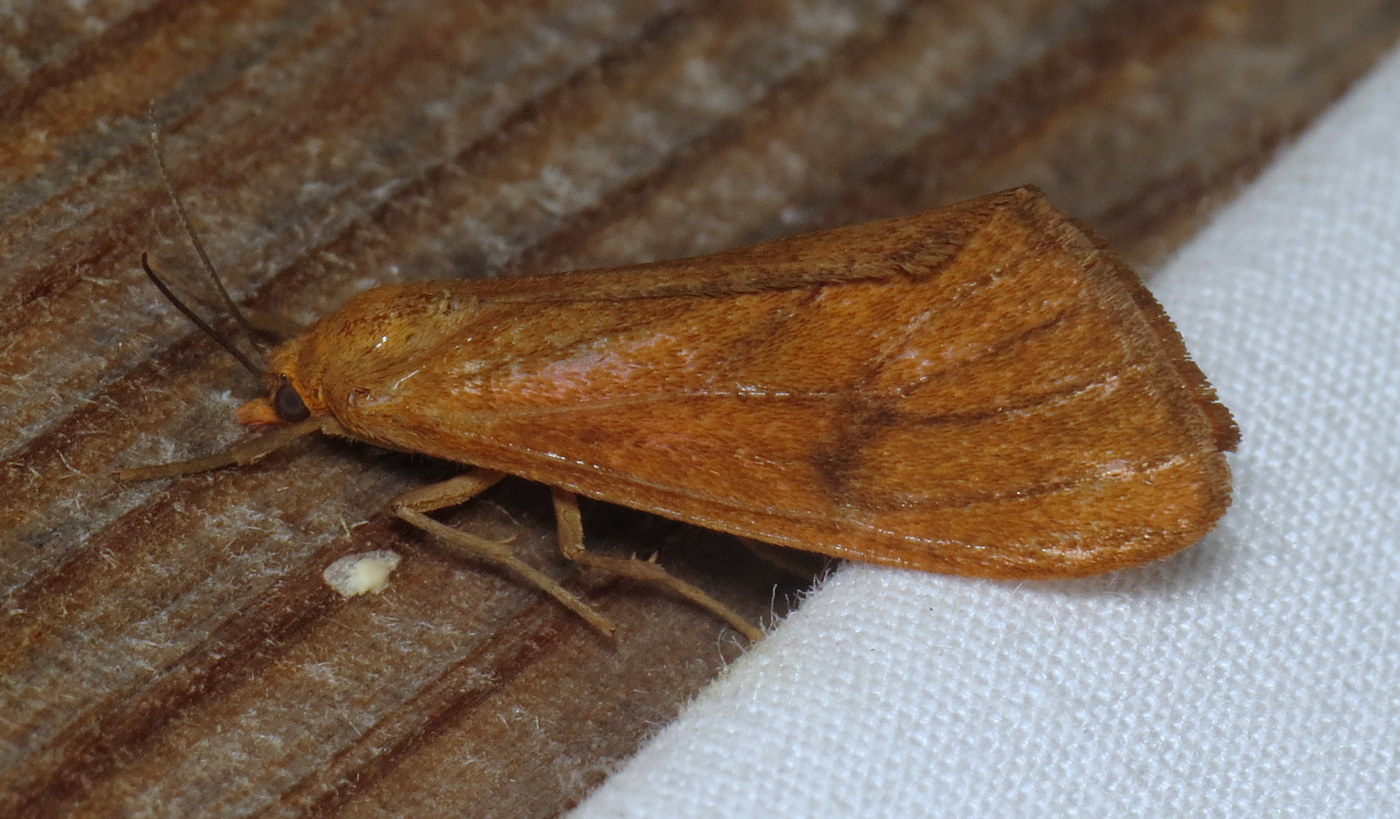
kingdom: Animalia
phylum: Arthropoda
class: Insecta
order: Lepidoptera
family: Erebidae
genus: Virbia
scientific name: Virbia opella
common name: Tawny virbia moth
